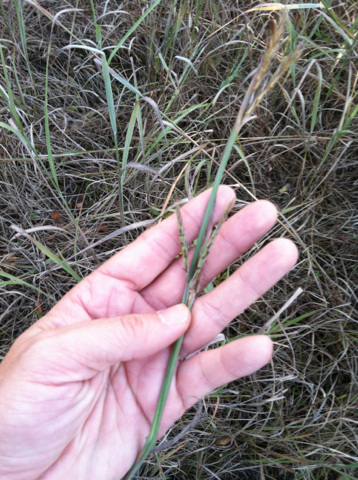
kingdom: Plantae
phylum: Tracheophyta
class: Liliopsida
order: Poales
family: Poaceae
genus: Andropogon
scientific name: Andropogon gerardi
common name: Big bluestem
